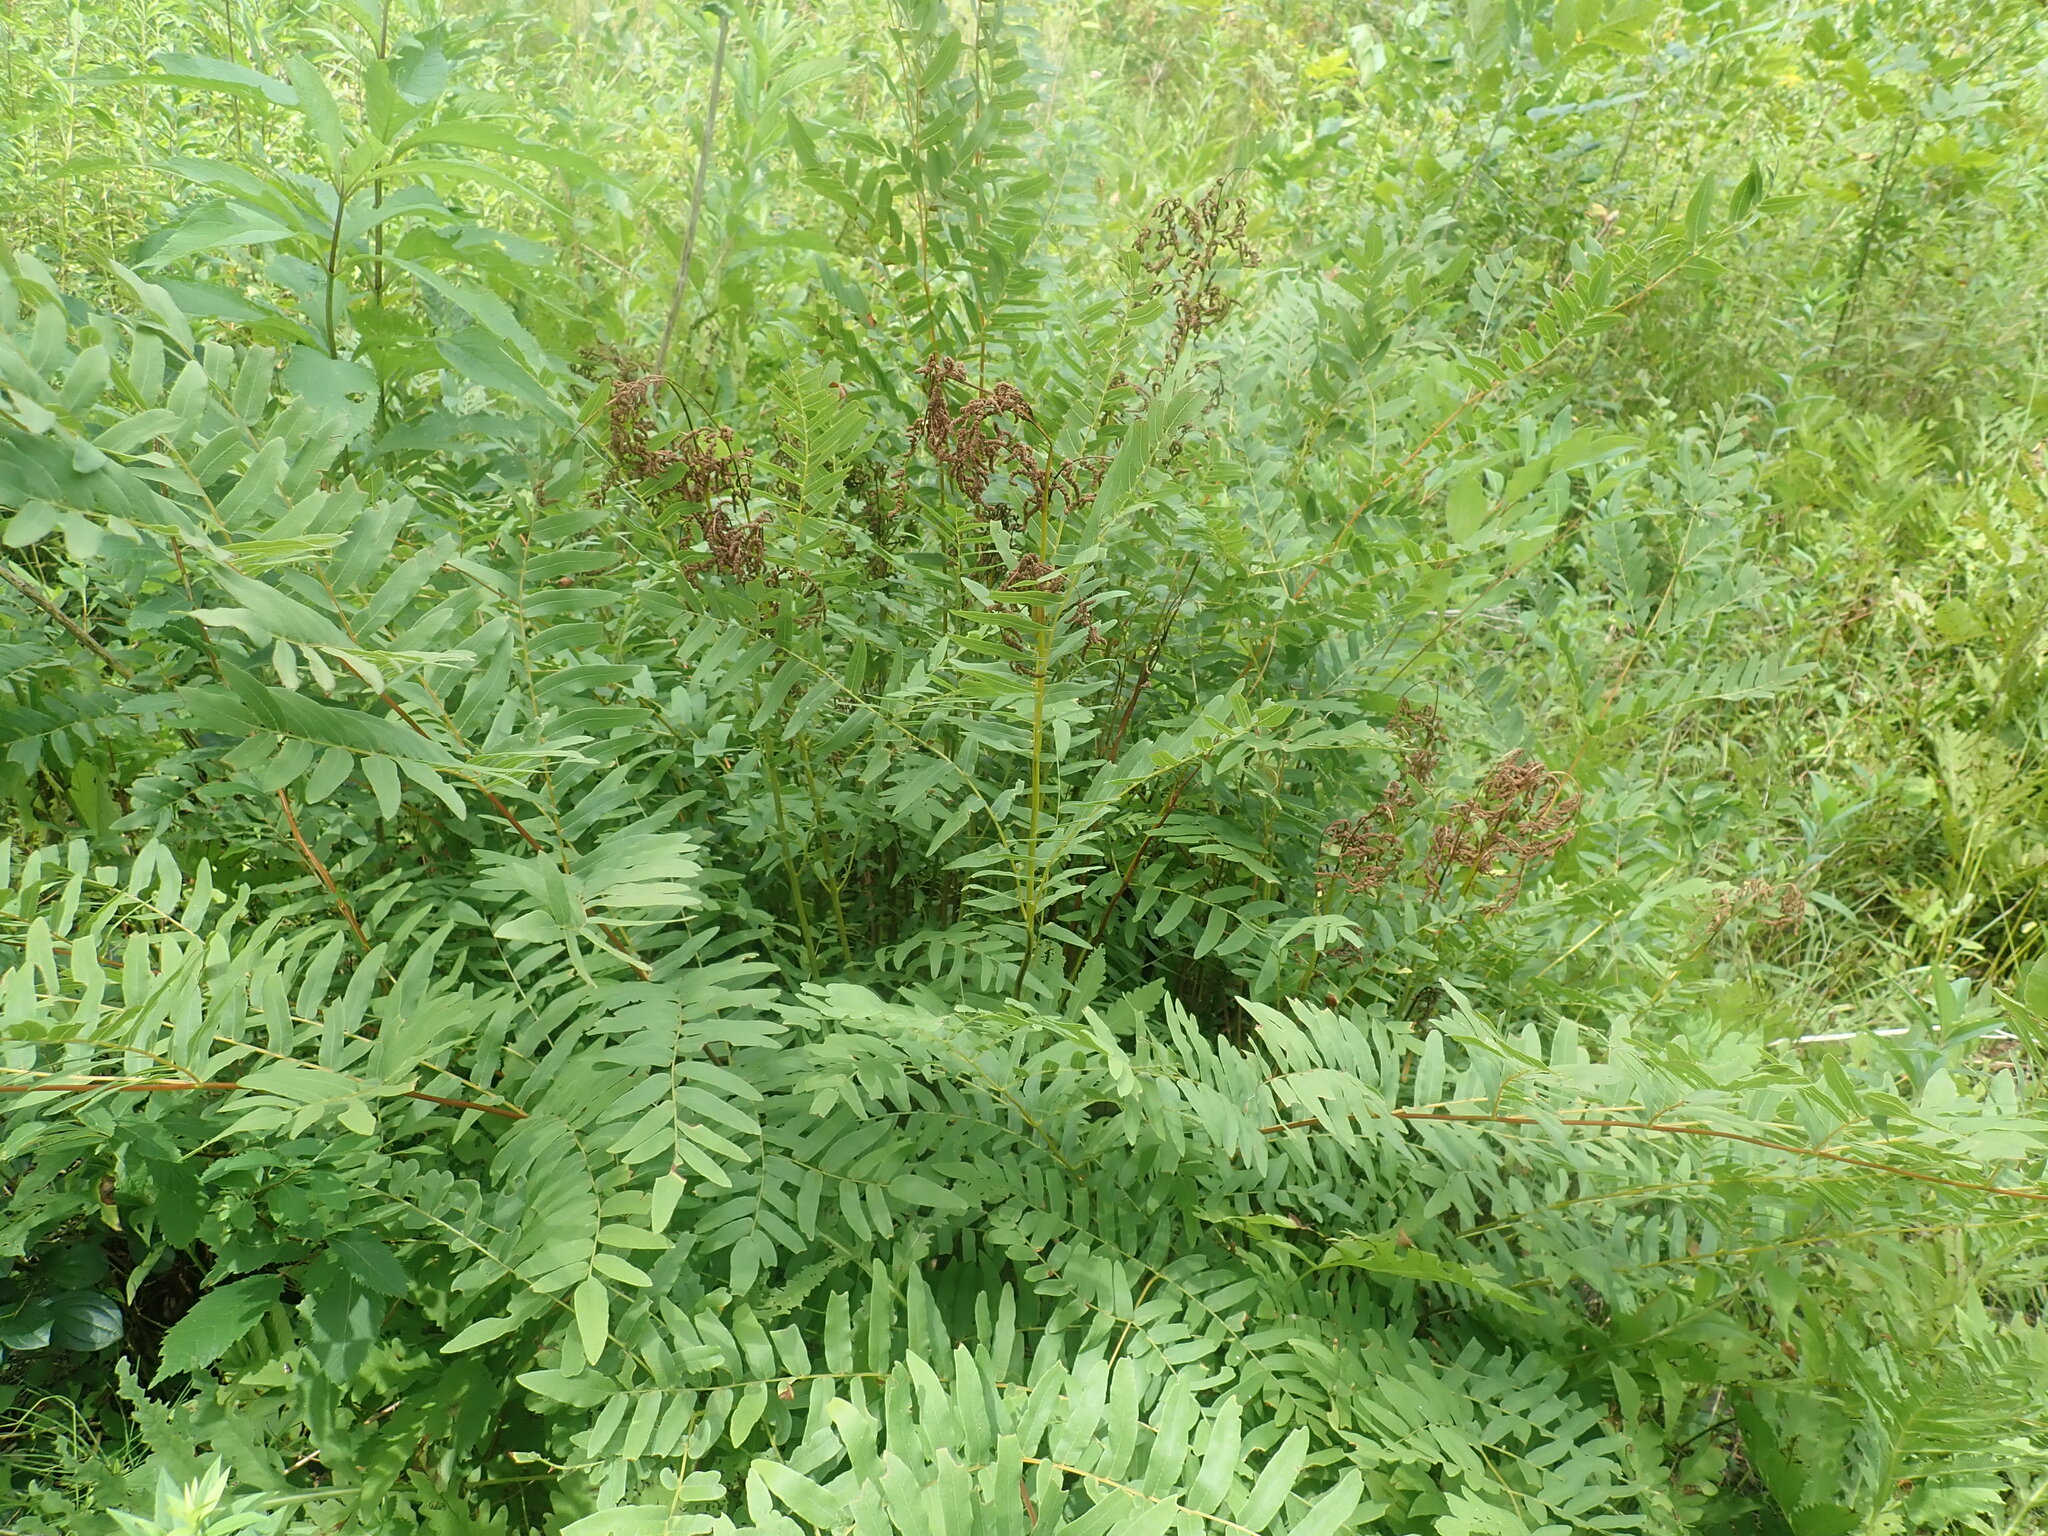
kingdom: Plantae
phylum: Tracheophyta
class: Polypodiopsida
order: Osmundales
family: Osmundaceae
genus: Osmunda
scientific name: Osmunda spectabilis
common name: American royal fern
